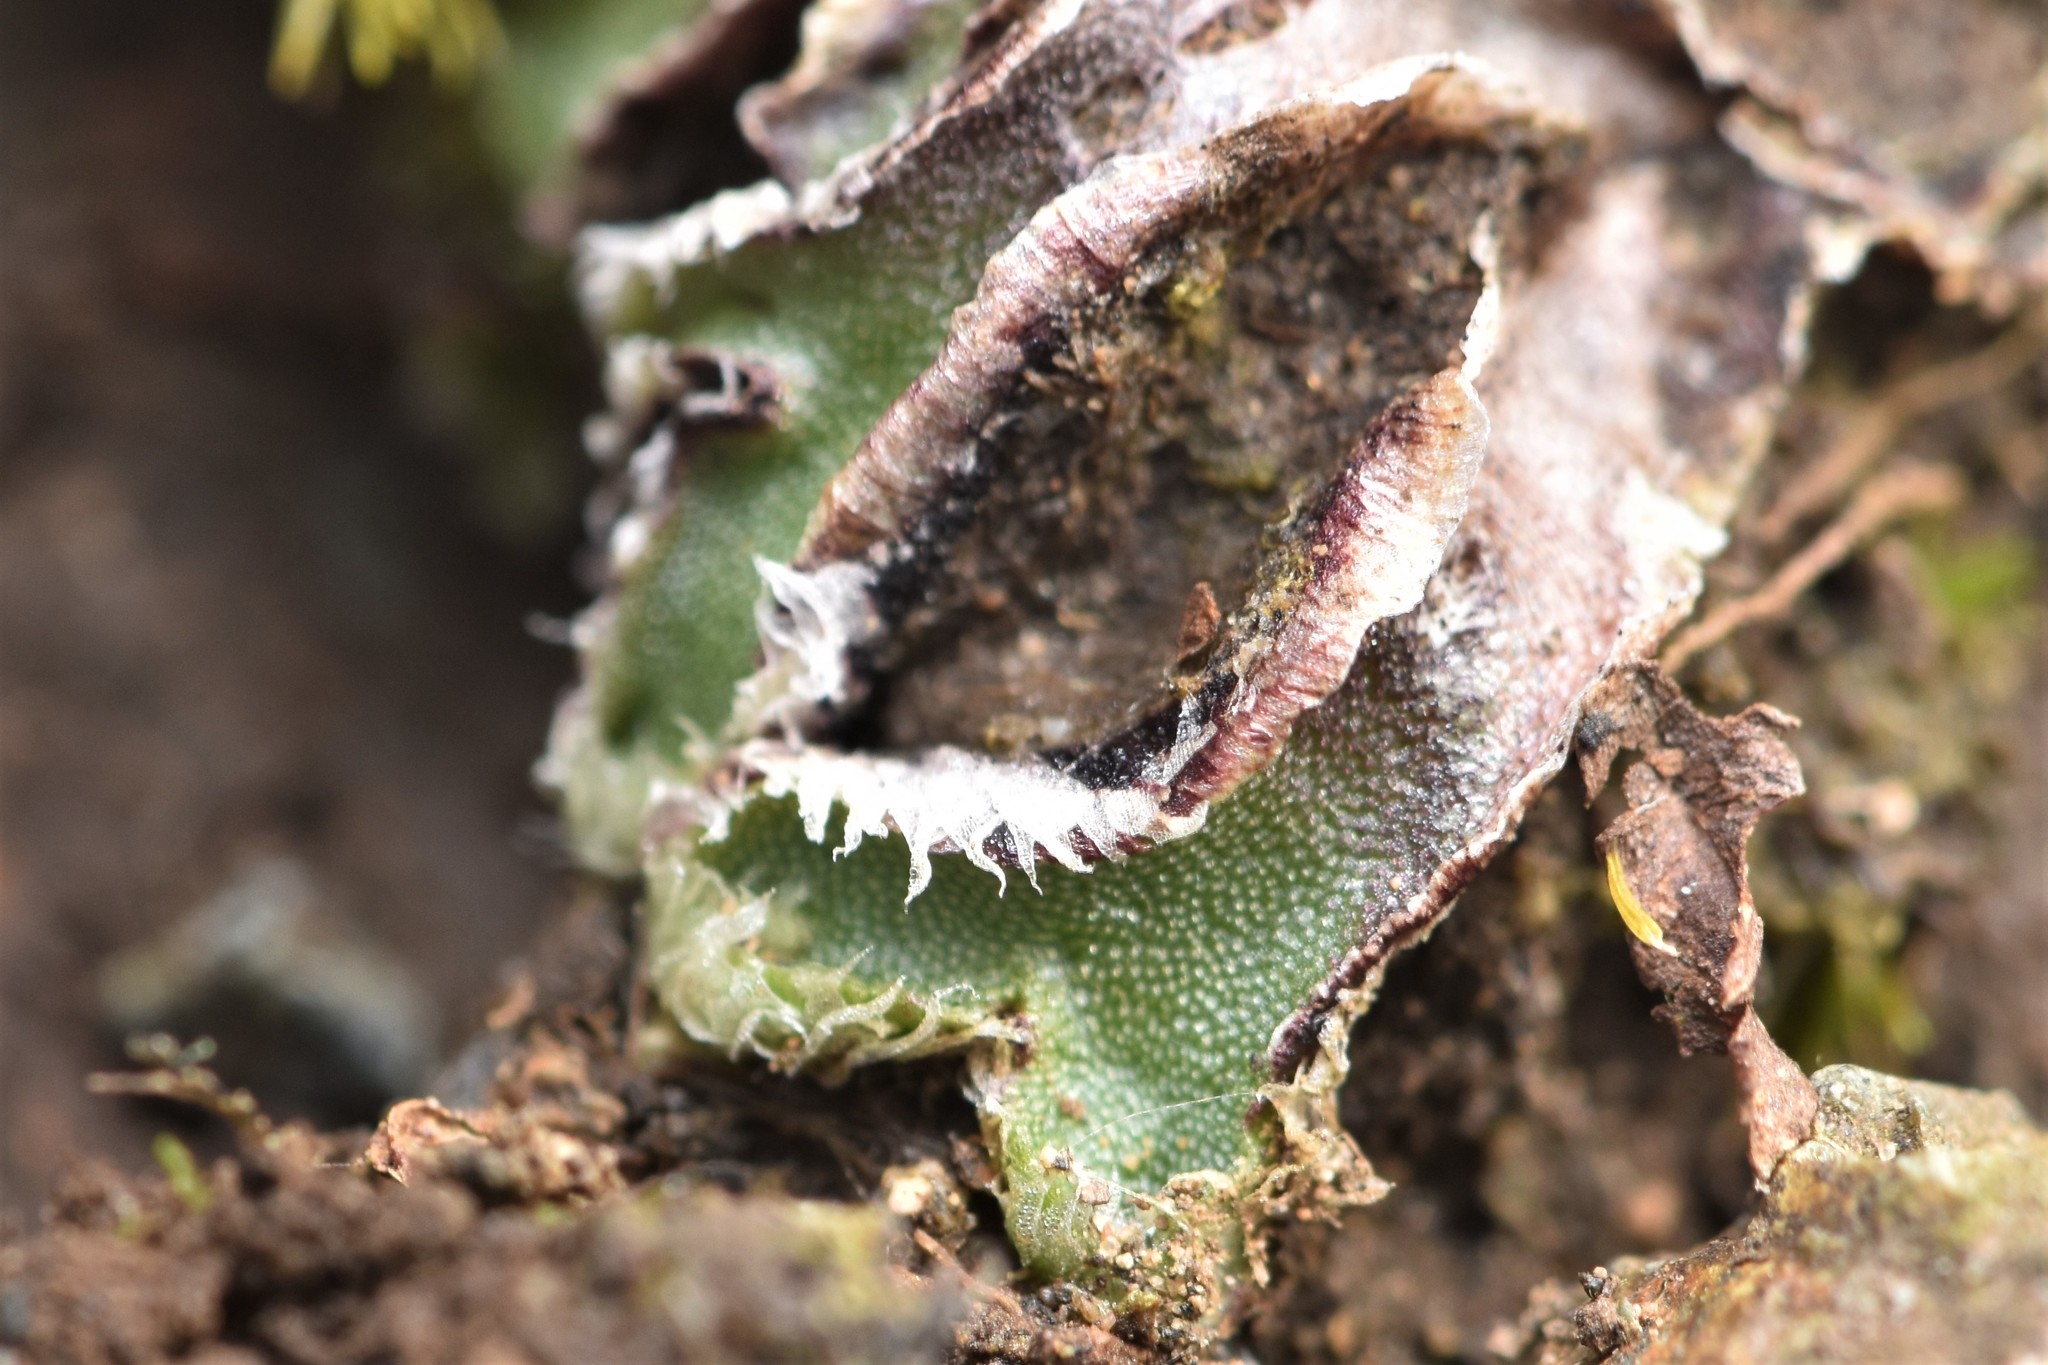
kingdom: Plantae
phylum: Marchantiophyta
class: Marchantiopsida
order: Marchantiales
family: Cleveaceae
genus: Clevea
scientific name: Clevea hyalina
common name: Hyaline liverwort
